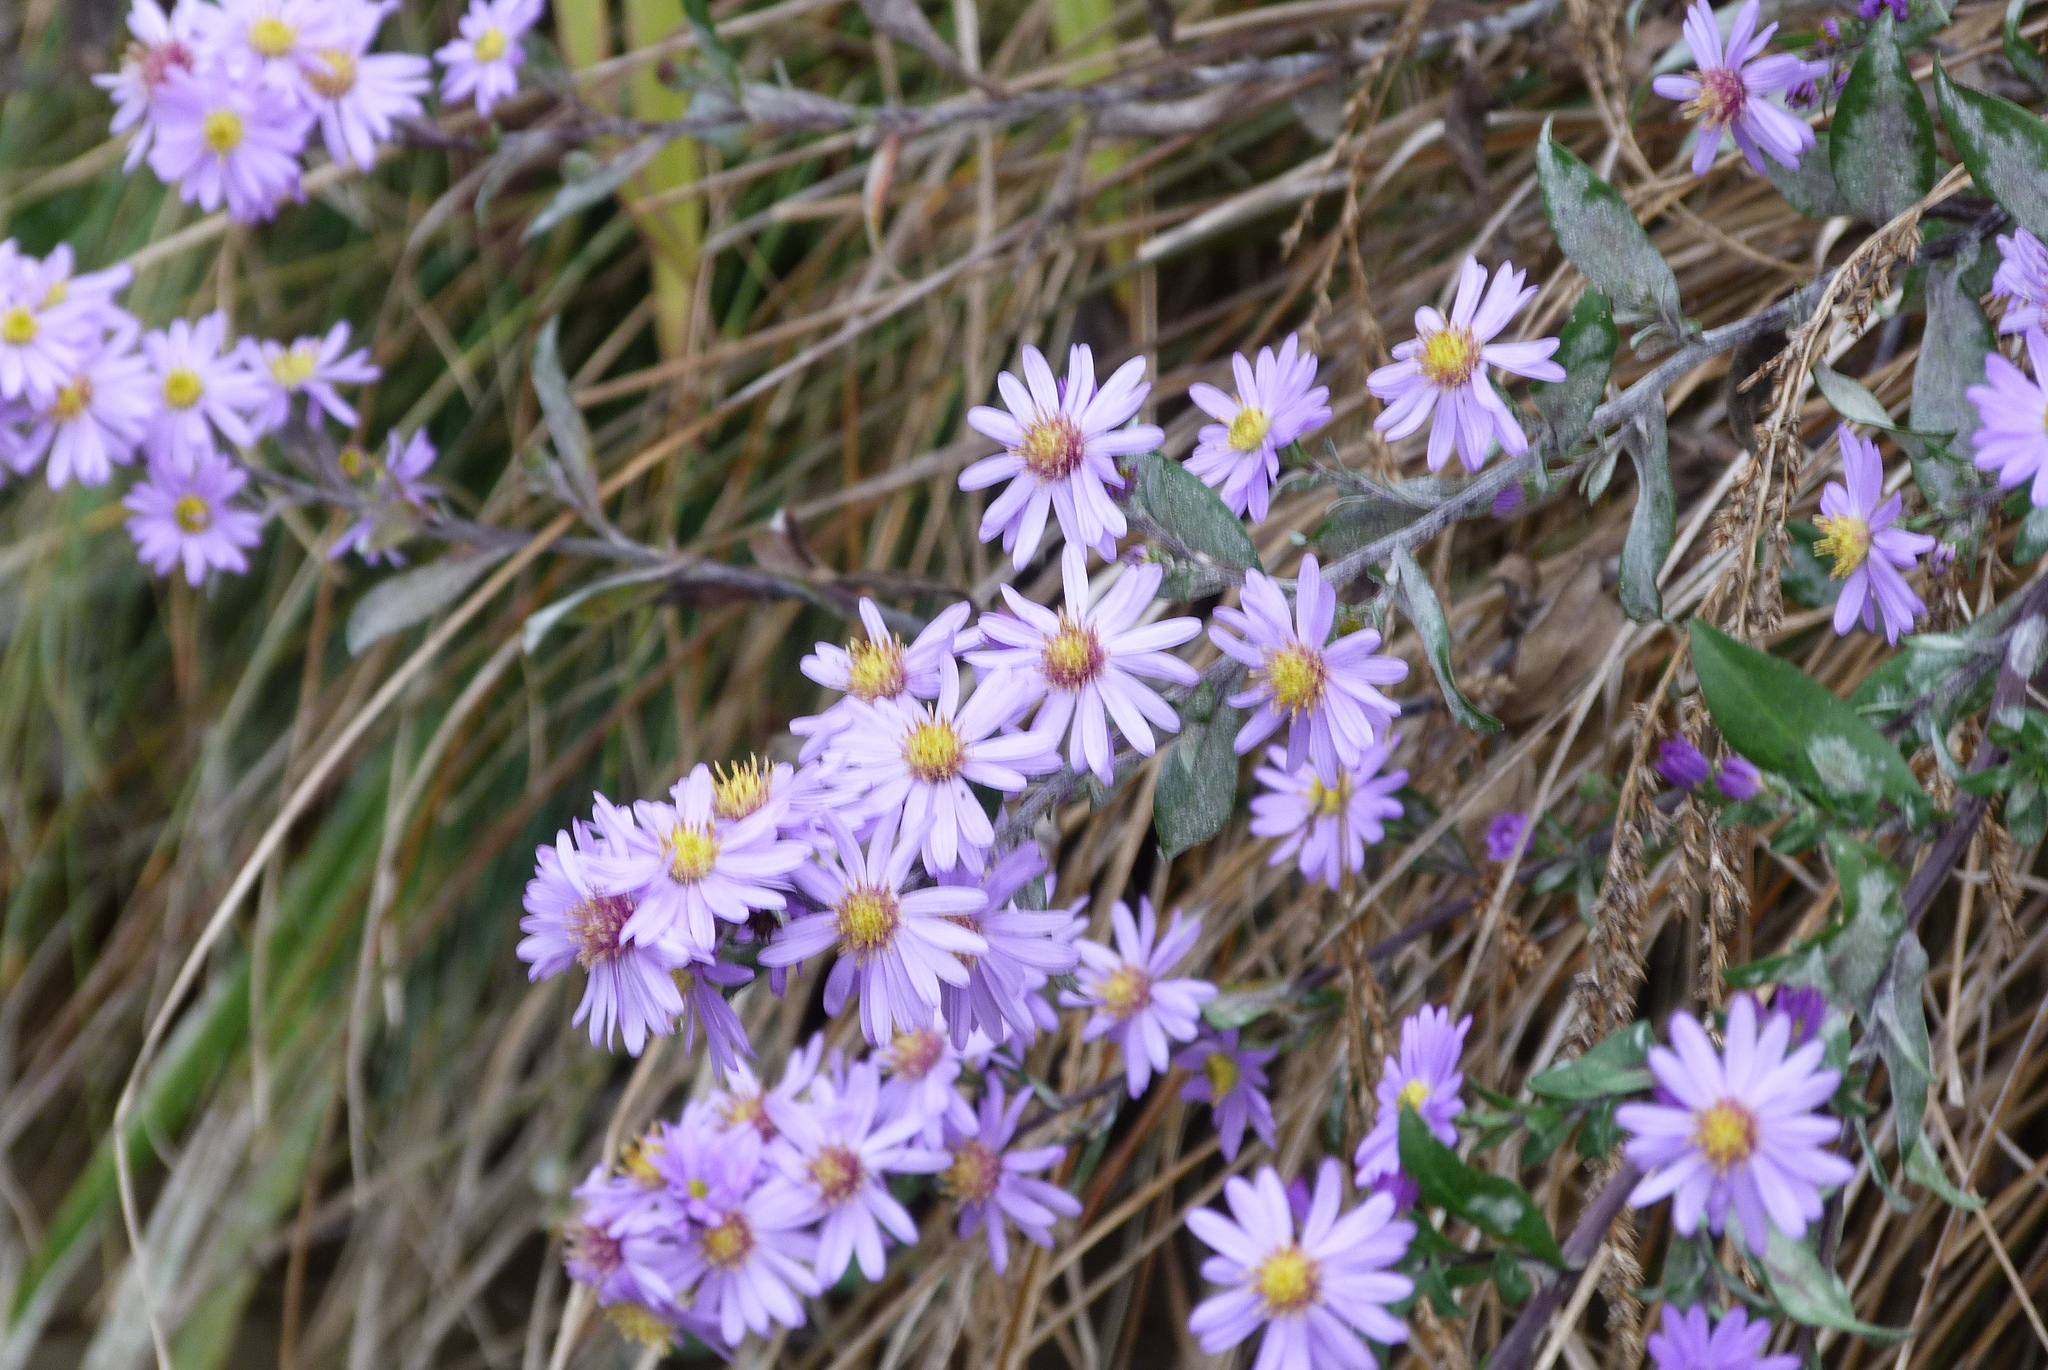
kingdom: Plantae
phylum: Tracheophyta
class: Magnoliopsida
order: Asterales
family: Asteraceae
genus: Symphyotrichum
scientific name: Symphyotrichum lanceolatum
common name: Panicled aster
